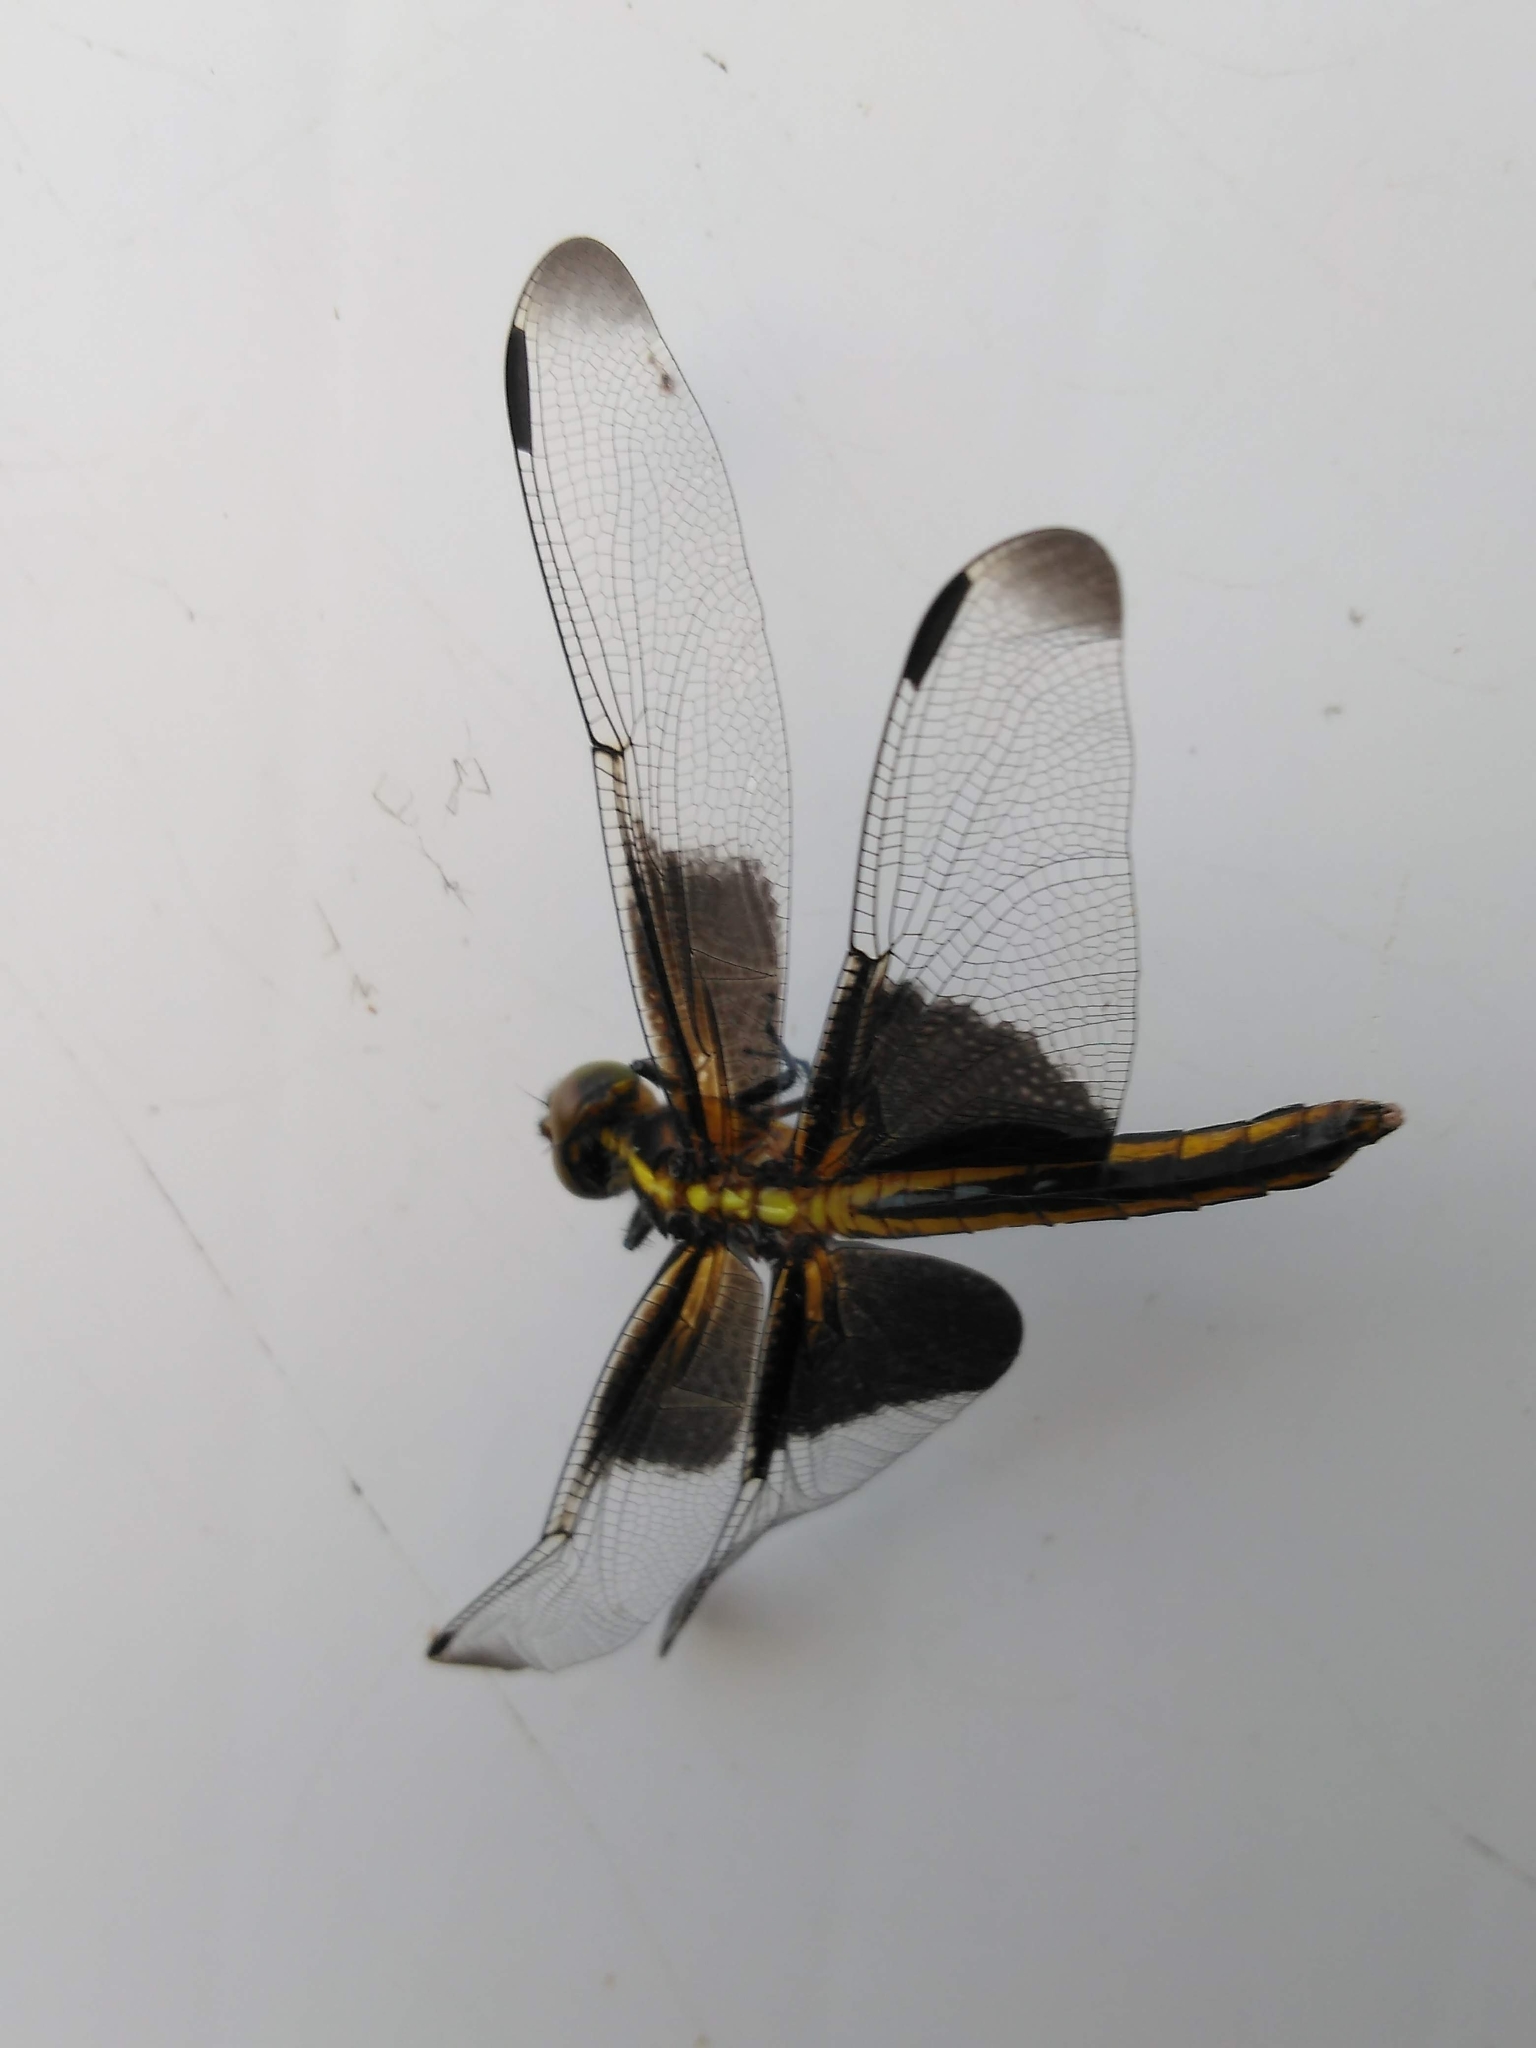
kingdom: Animalia
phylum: Arthropoda
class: Insecta
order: Odonata
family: Libellulidae
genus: Libellula
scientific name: Libellula luctuosa
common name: Widow skimmer
